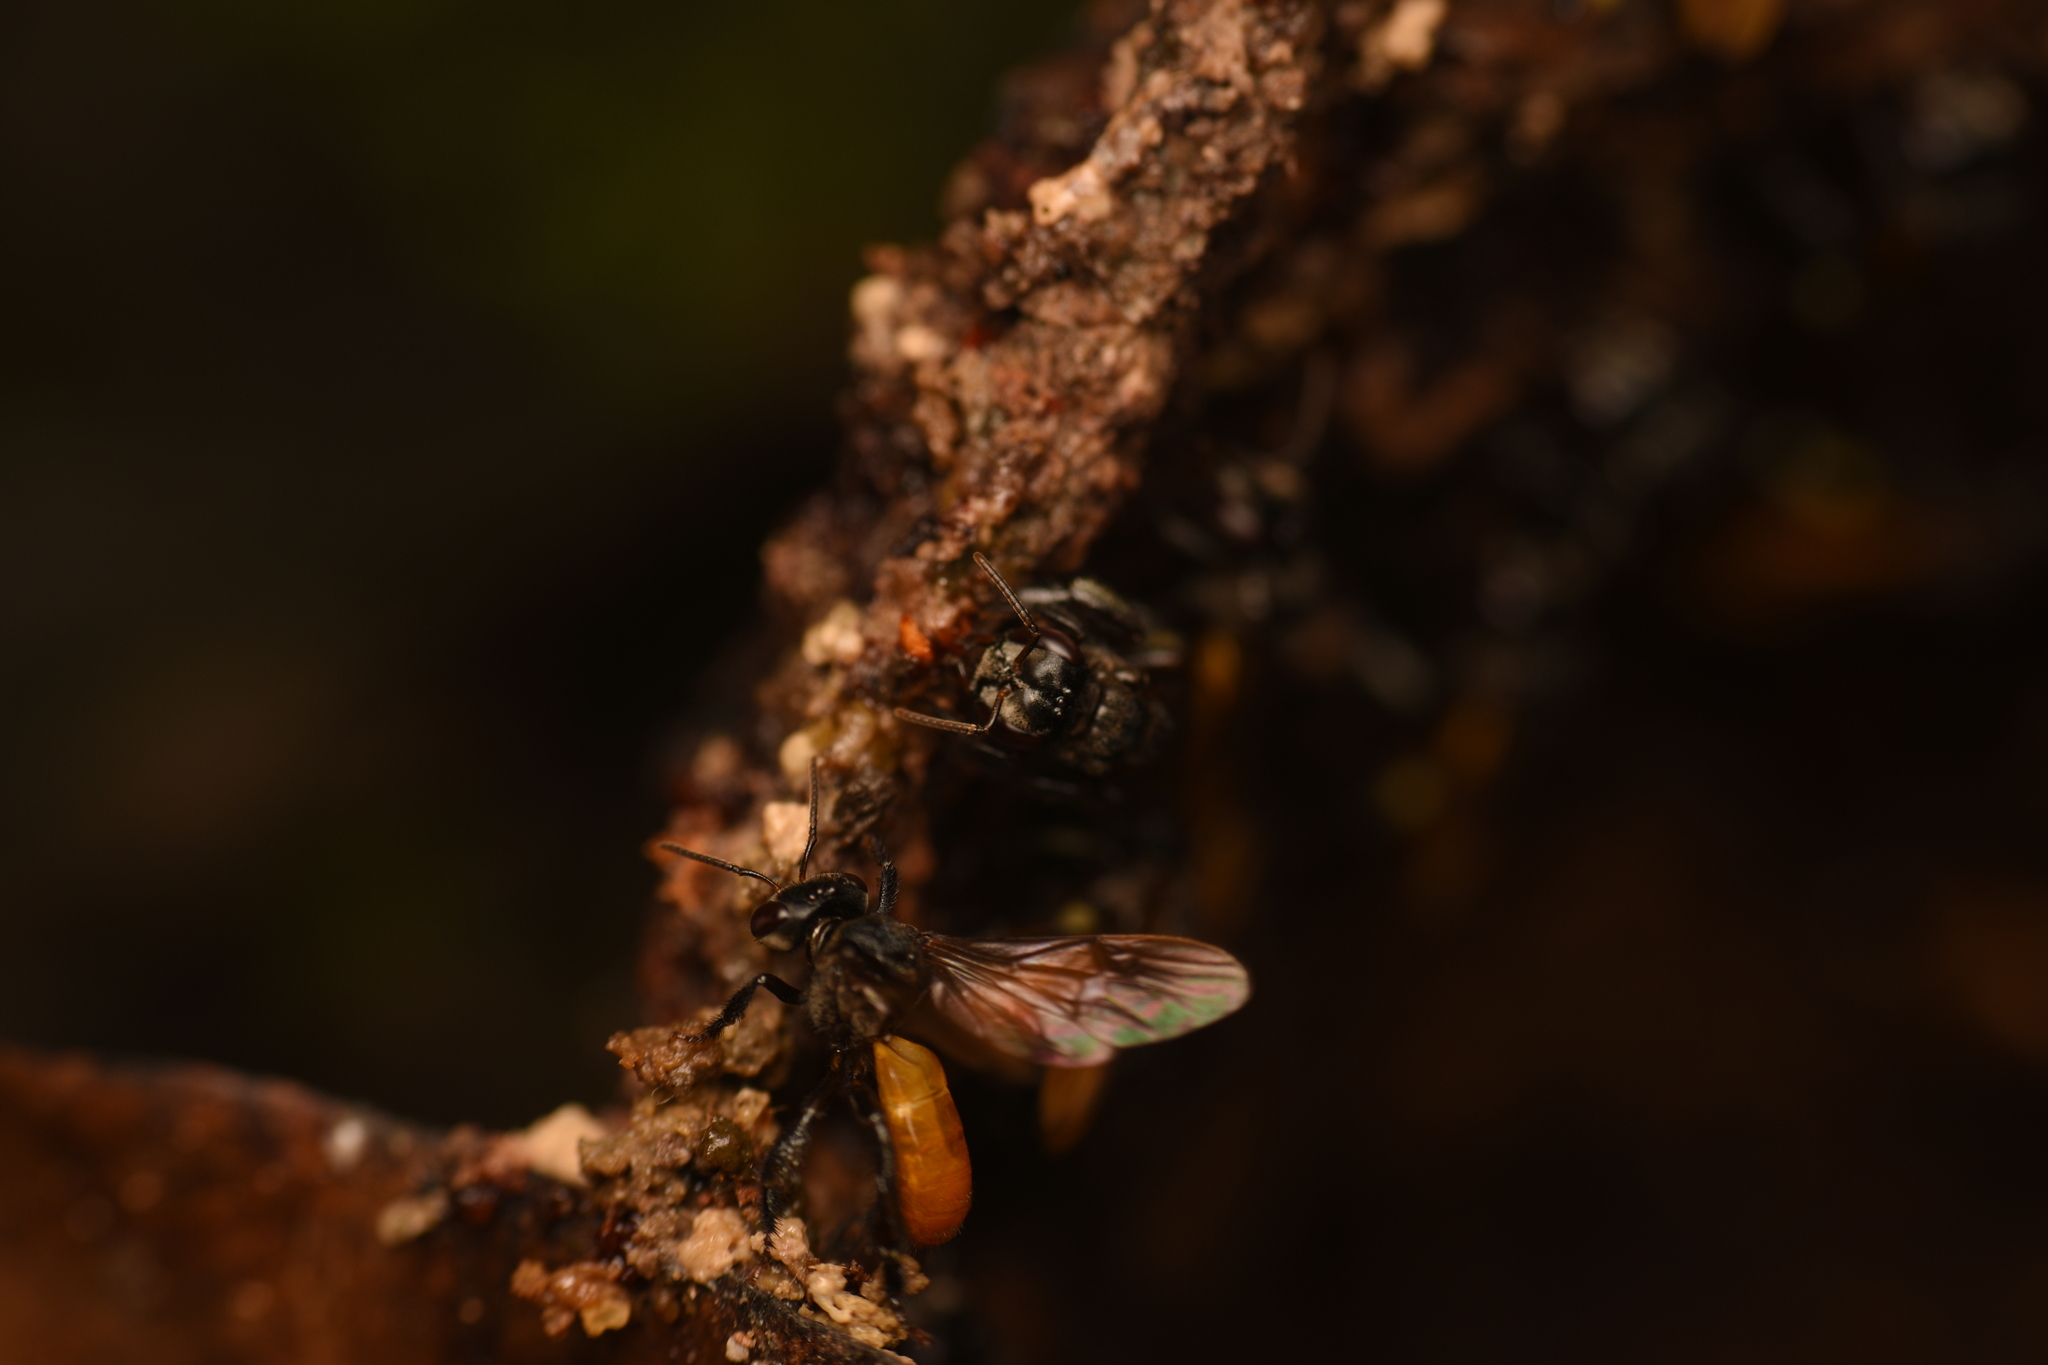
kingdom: Animalia
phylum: Arthropoda
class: Insecta
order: Hymenoptera
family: Apidae
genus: Trigona
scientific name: Trigona fulviventris
